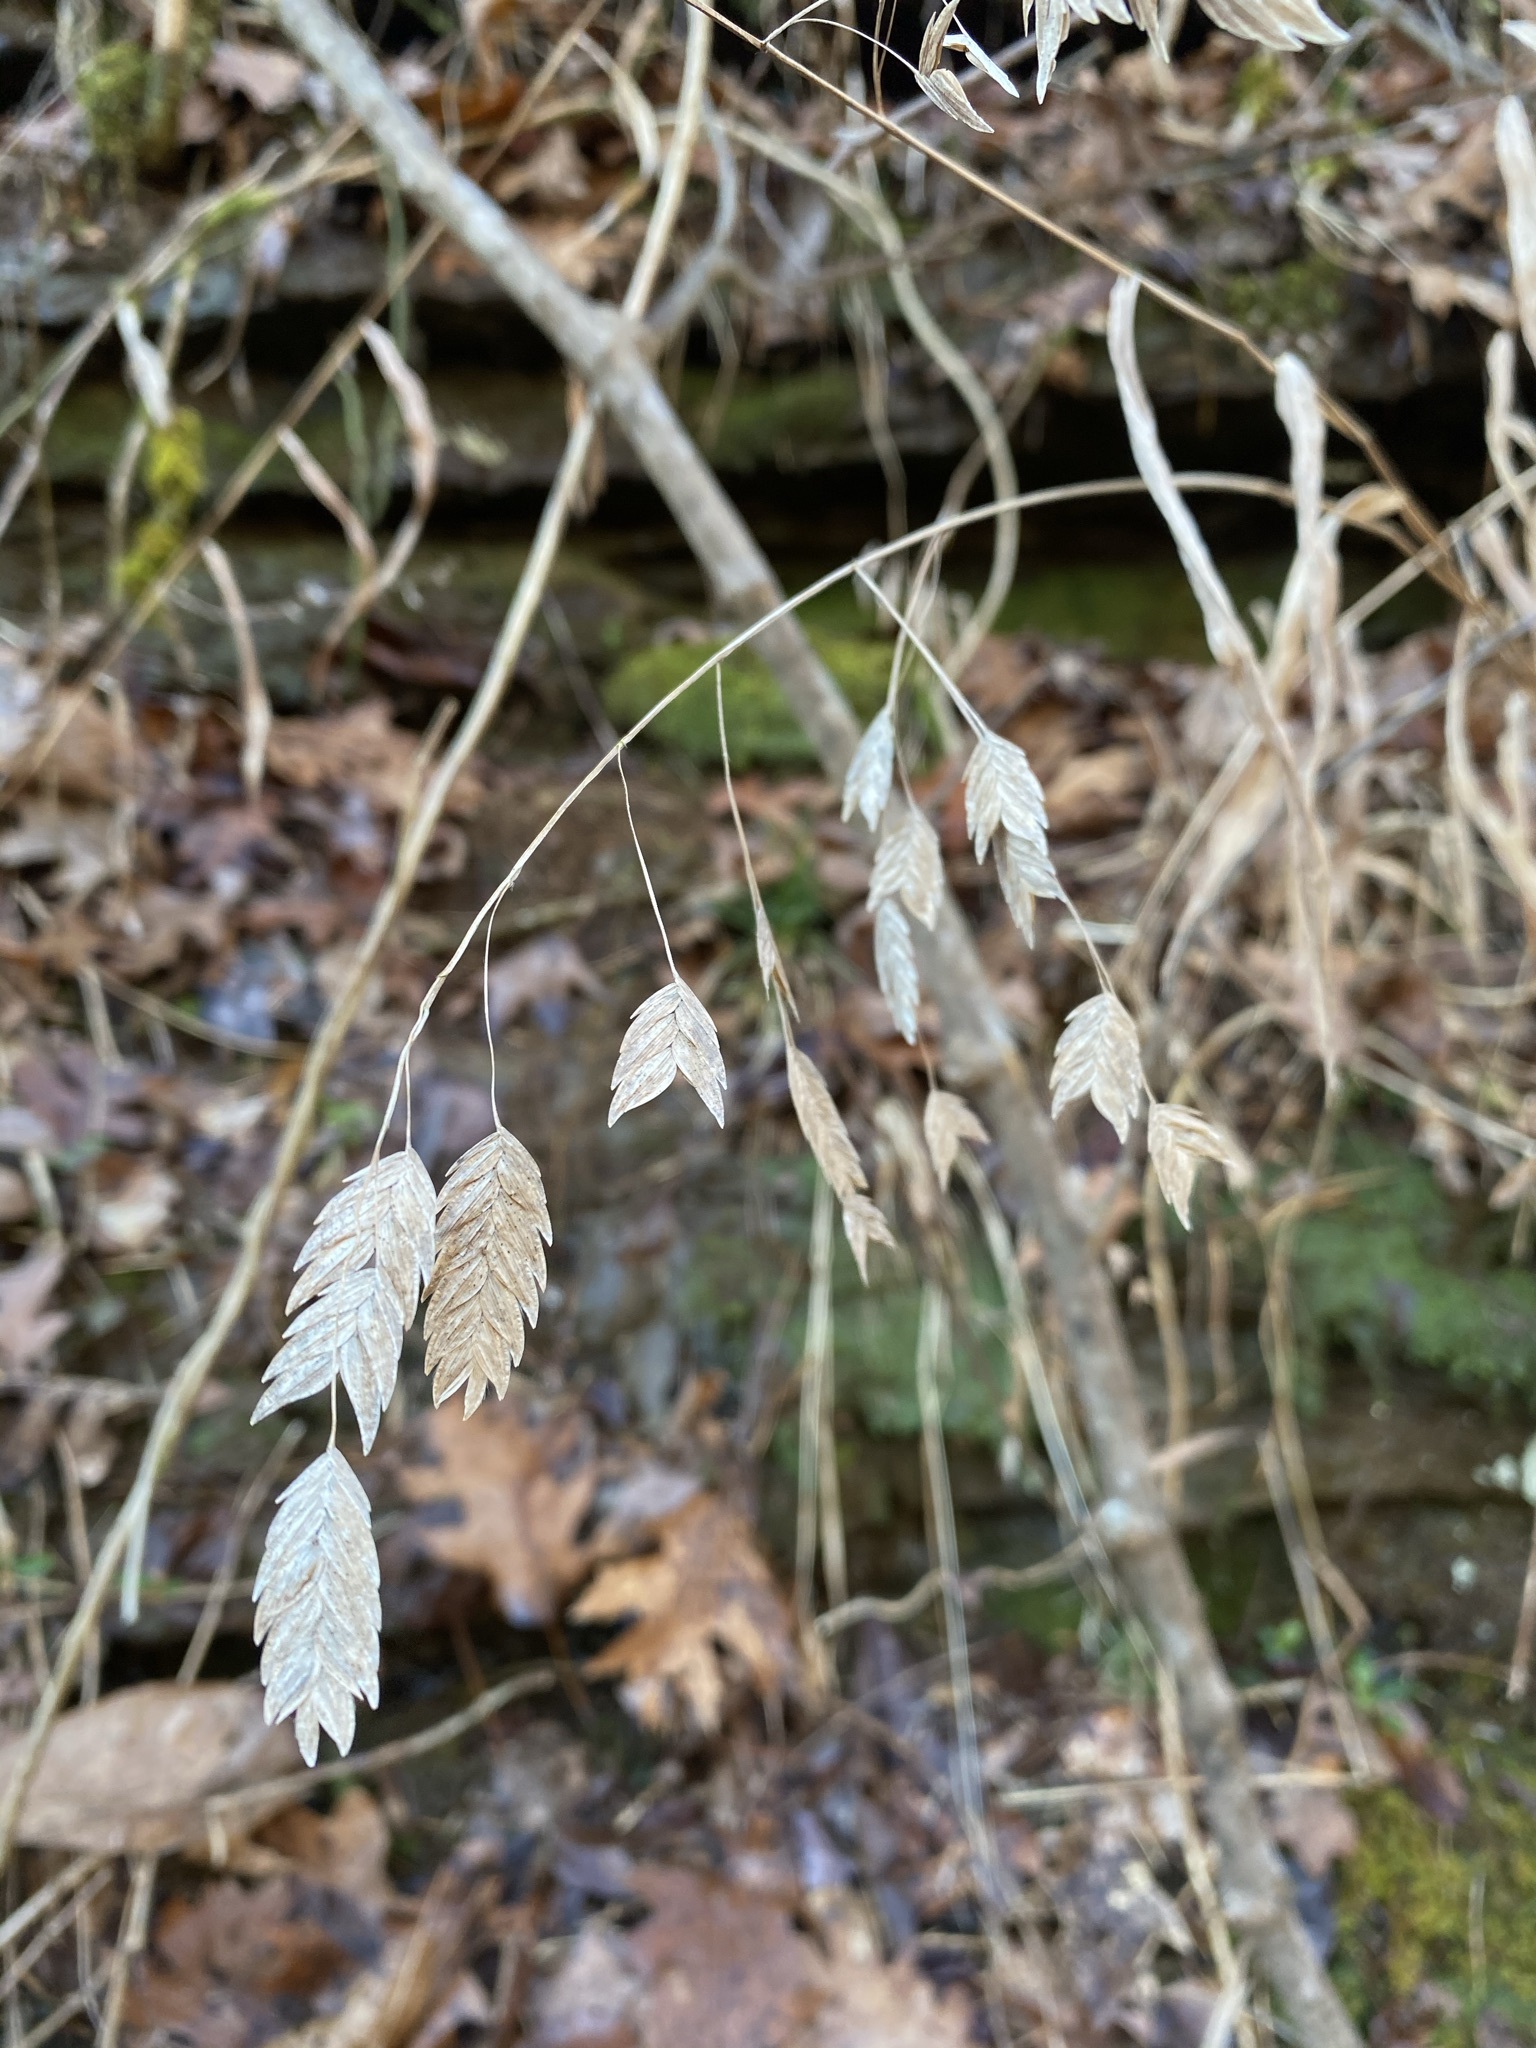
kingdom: Plantae
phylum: Tracheophyta
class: Liliopsida
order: Poales
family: Poaceae
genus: Chasmanthium
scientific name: Chasmanthium latifolium
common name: Broad-leaved chasmanthium
